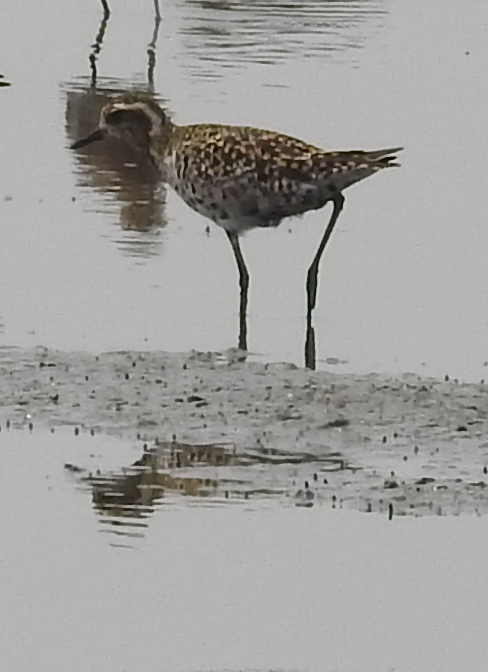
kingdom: Animalia
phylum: Chordata
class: Aves
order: Charadriiformes
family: Charadriidae
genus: Pluvialis
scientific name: Pluvialis fulva
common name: Pacific golden plover
